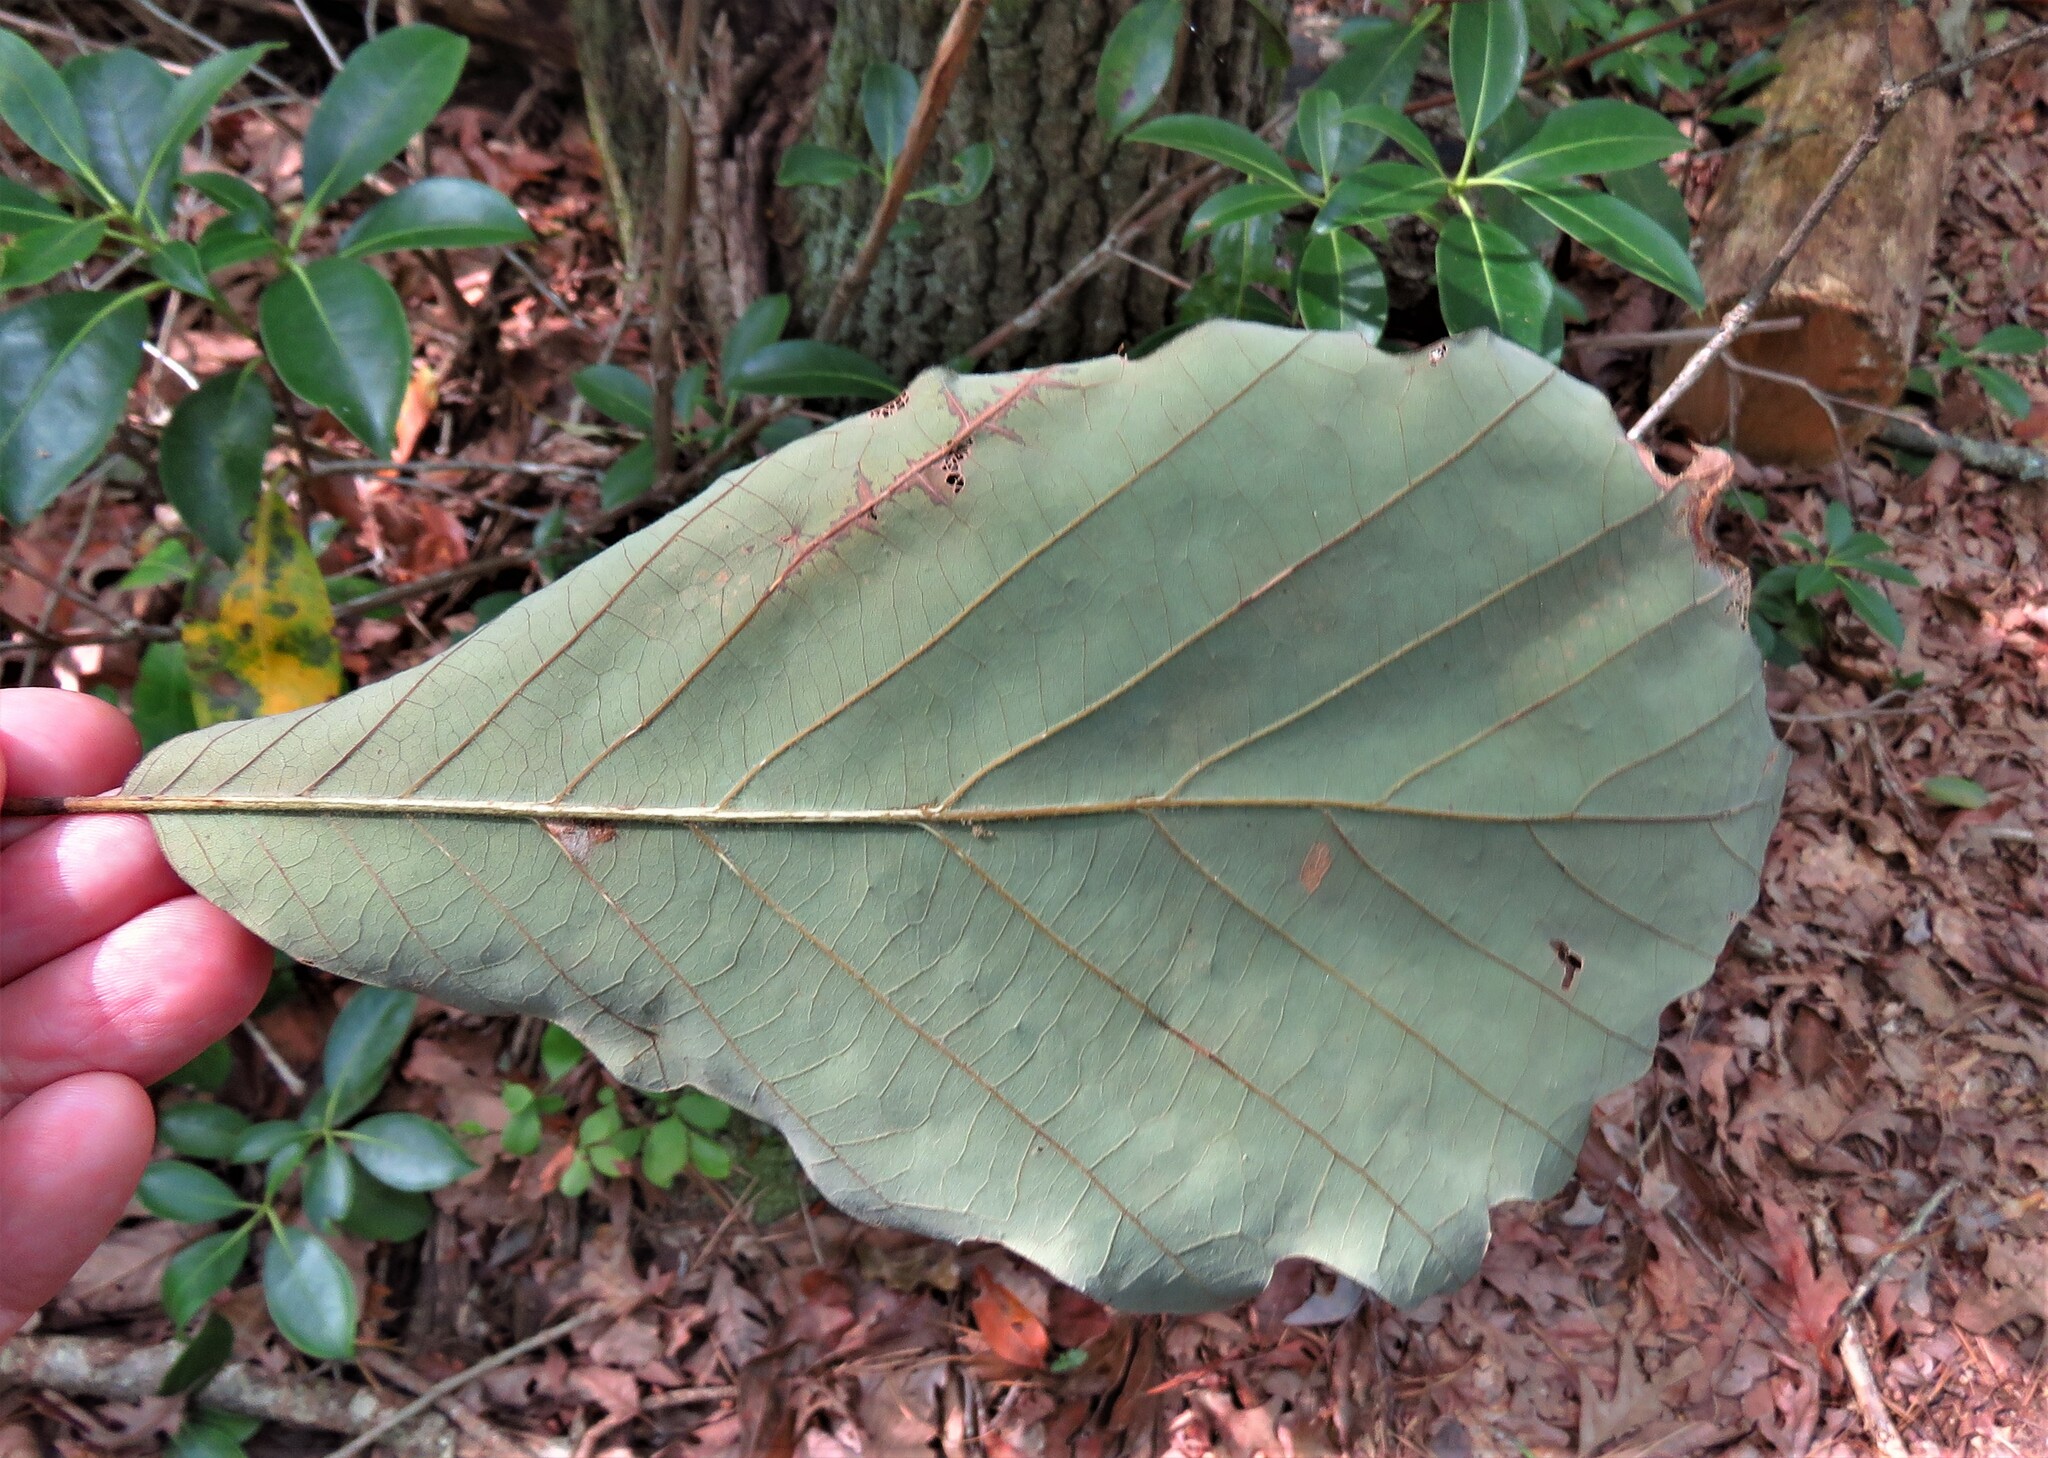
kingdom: Plantae
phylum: Tracheophyta
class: Magnoliopsida
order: Fagales
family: Fagaceae
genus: Quercus
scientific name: Quercus montana
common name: Chestnut oak
